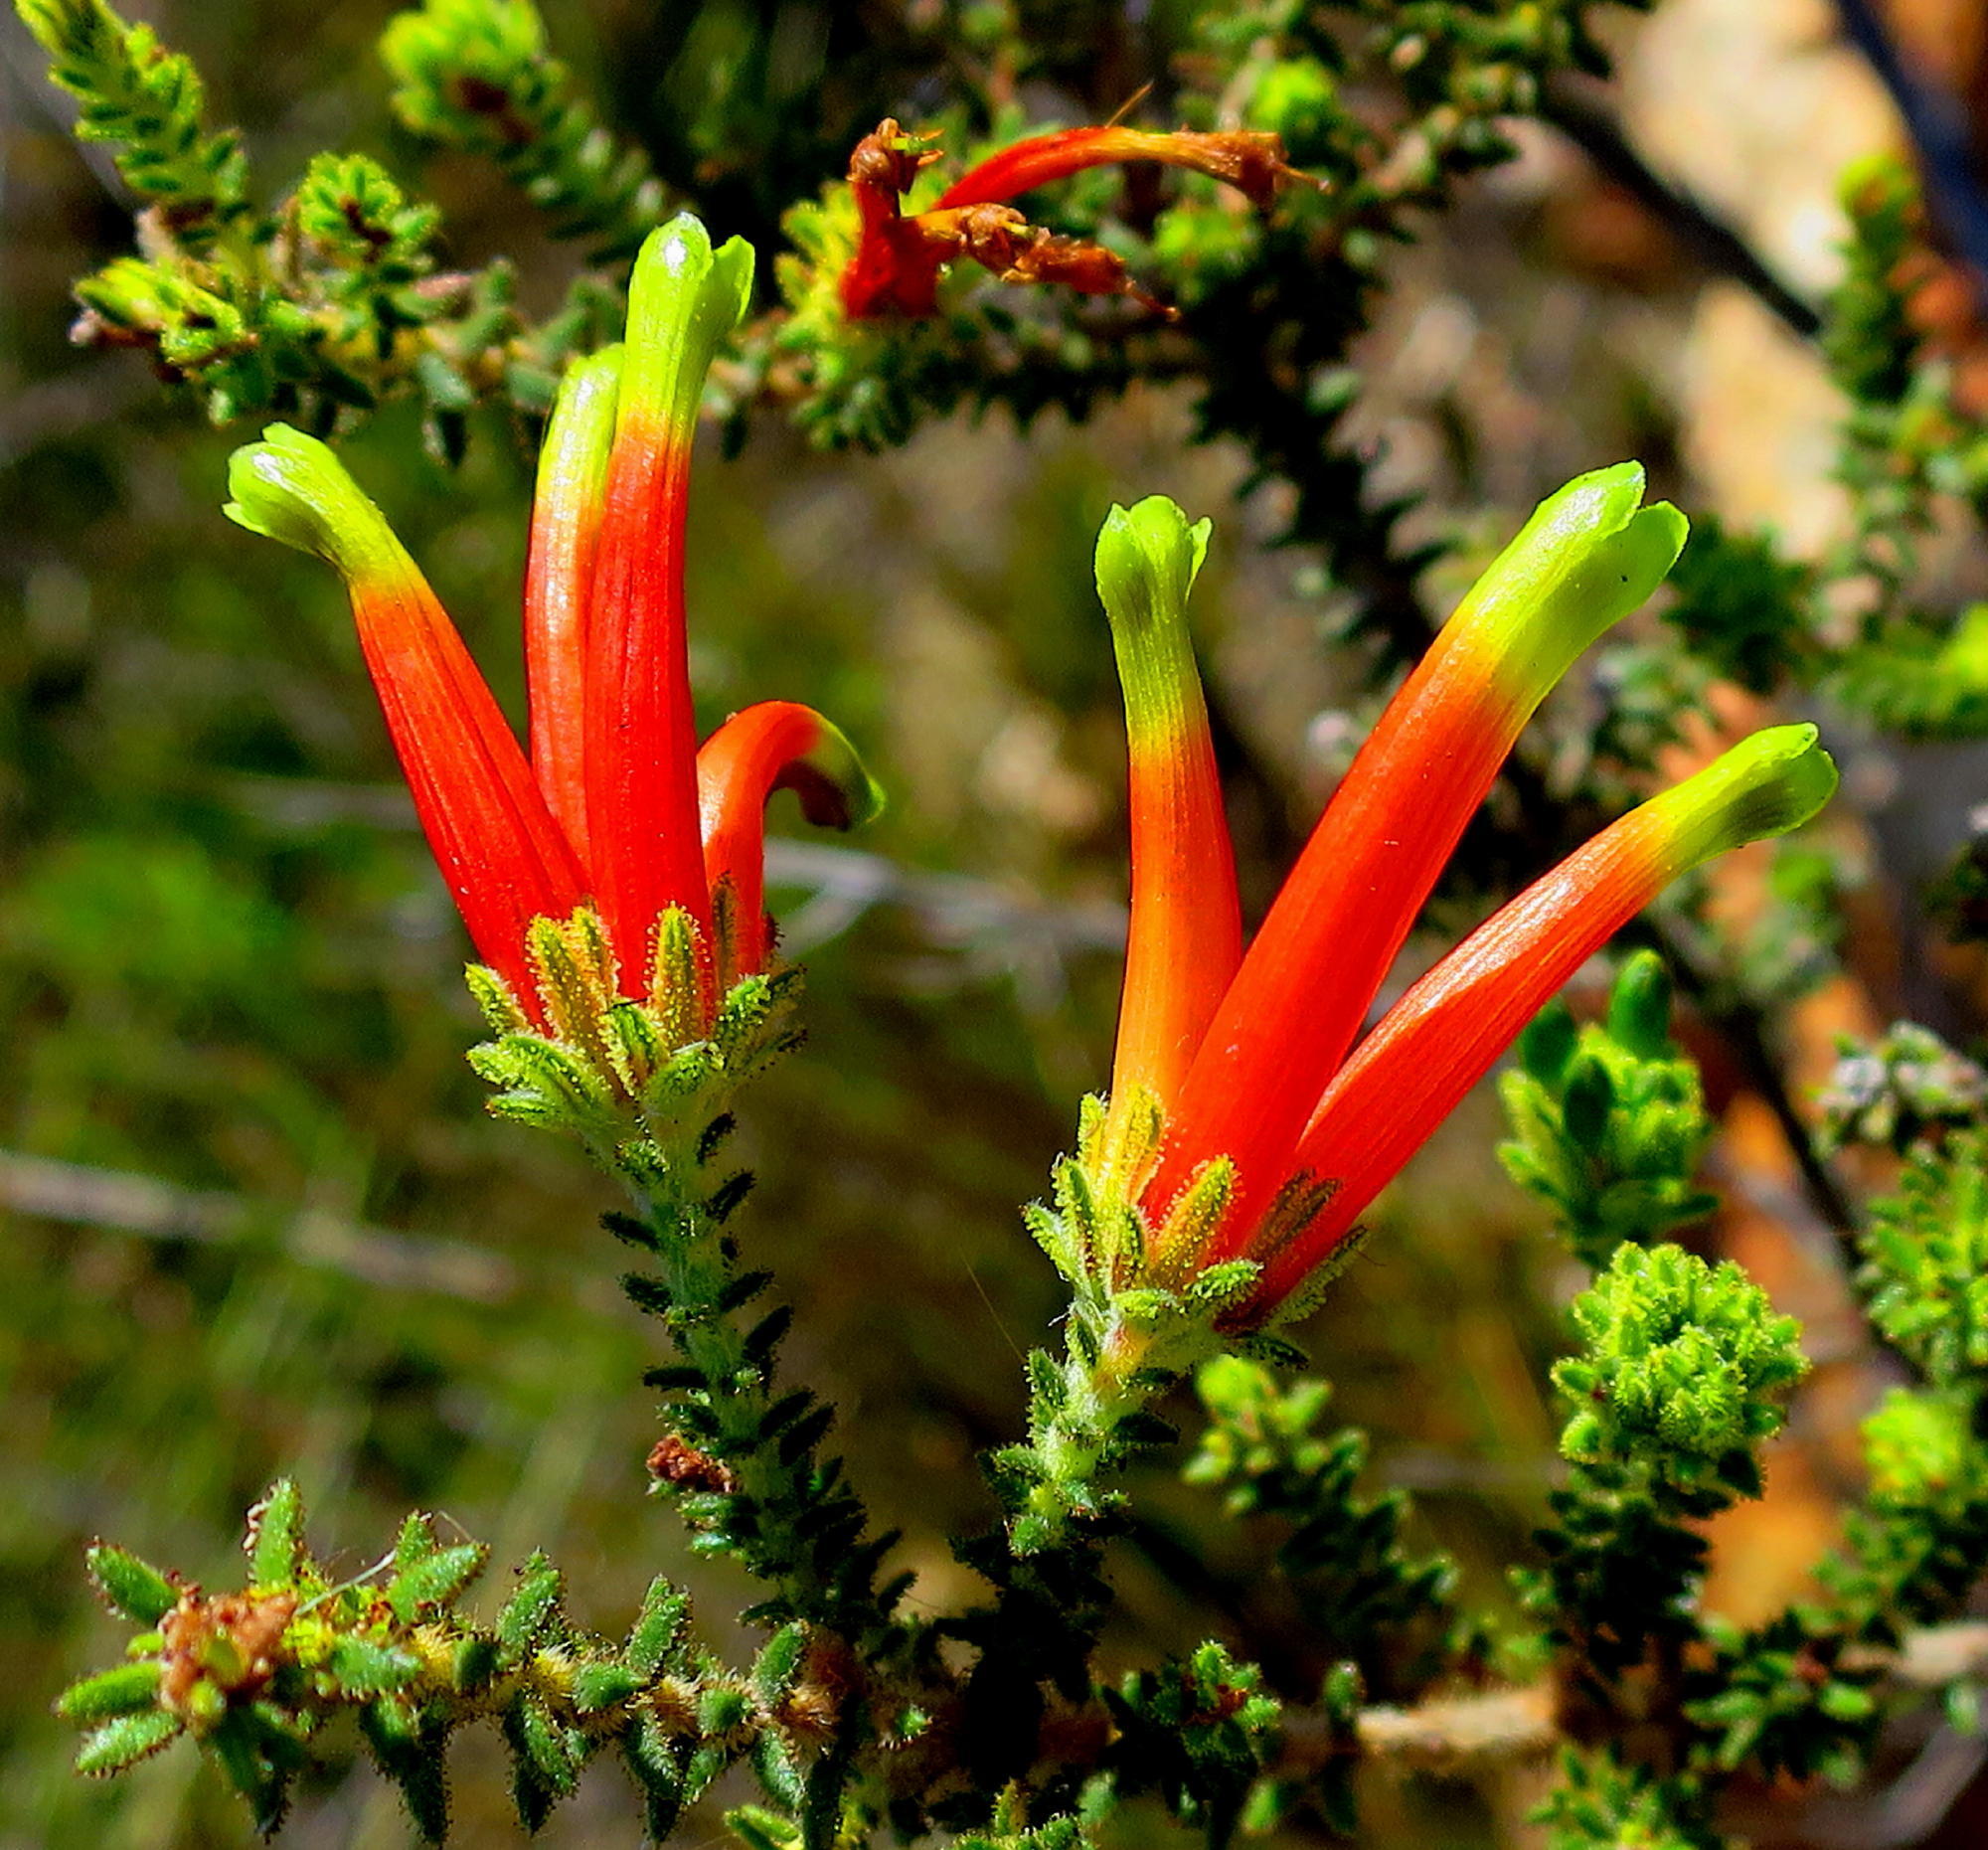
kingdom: Plantae
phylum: Tracheophyta
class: Magnoliopsida
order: Ericales
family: Ericaceae
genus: Erica
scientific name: Erica croceovirens
